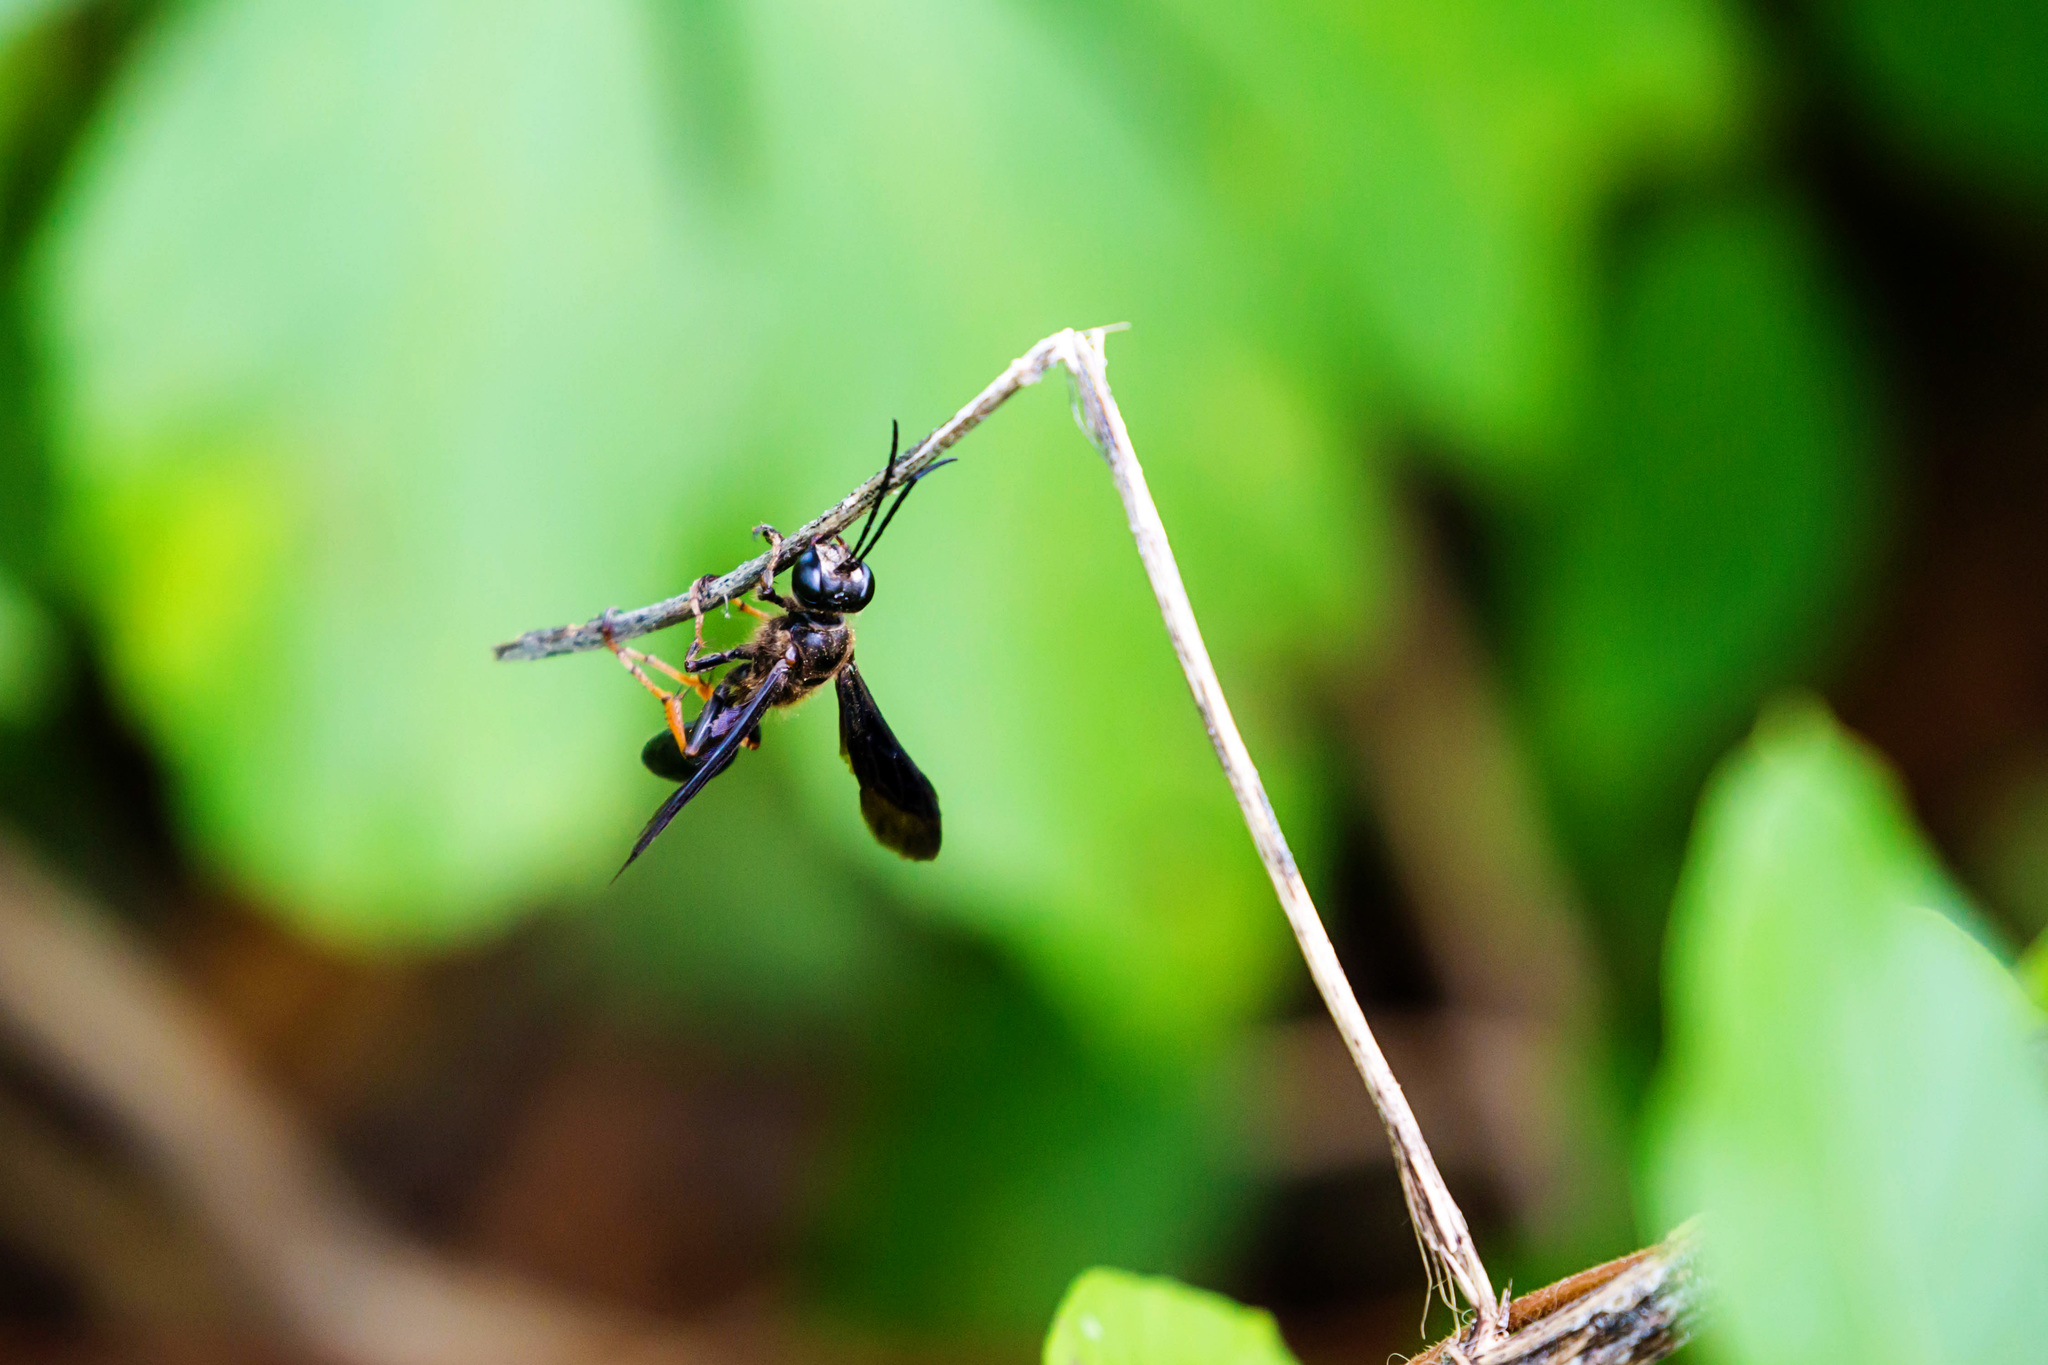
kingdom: Animalia
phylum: Arthropoda
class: Insecta
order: Hymenoptera
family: Sphecidae
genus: Isodontia
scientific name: Isodontia auripes
